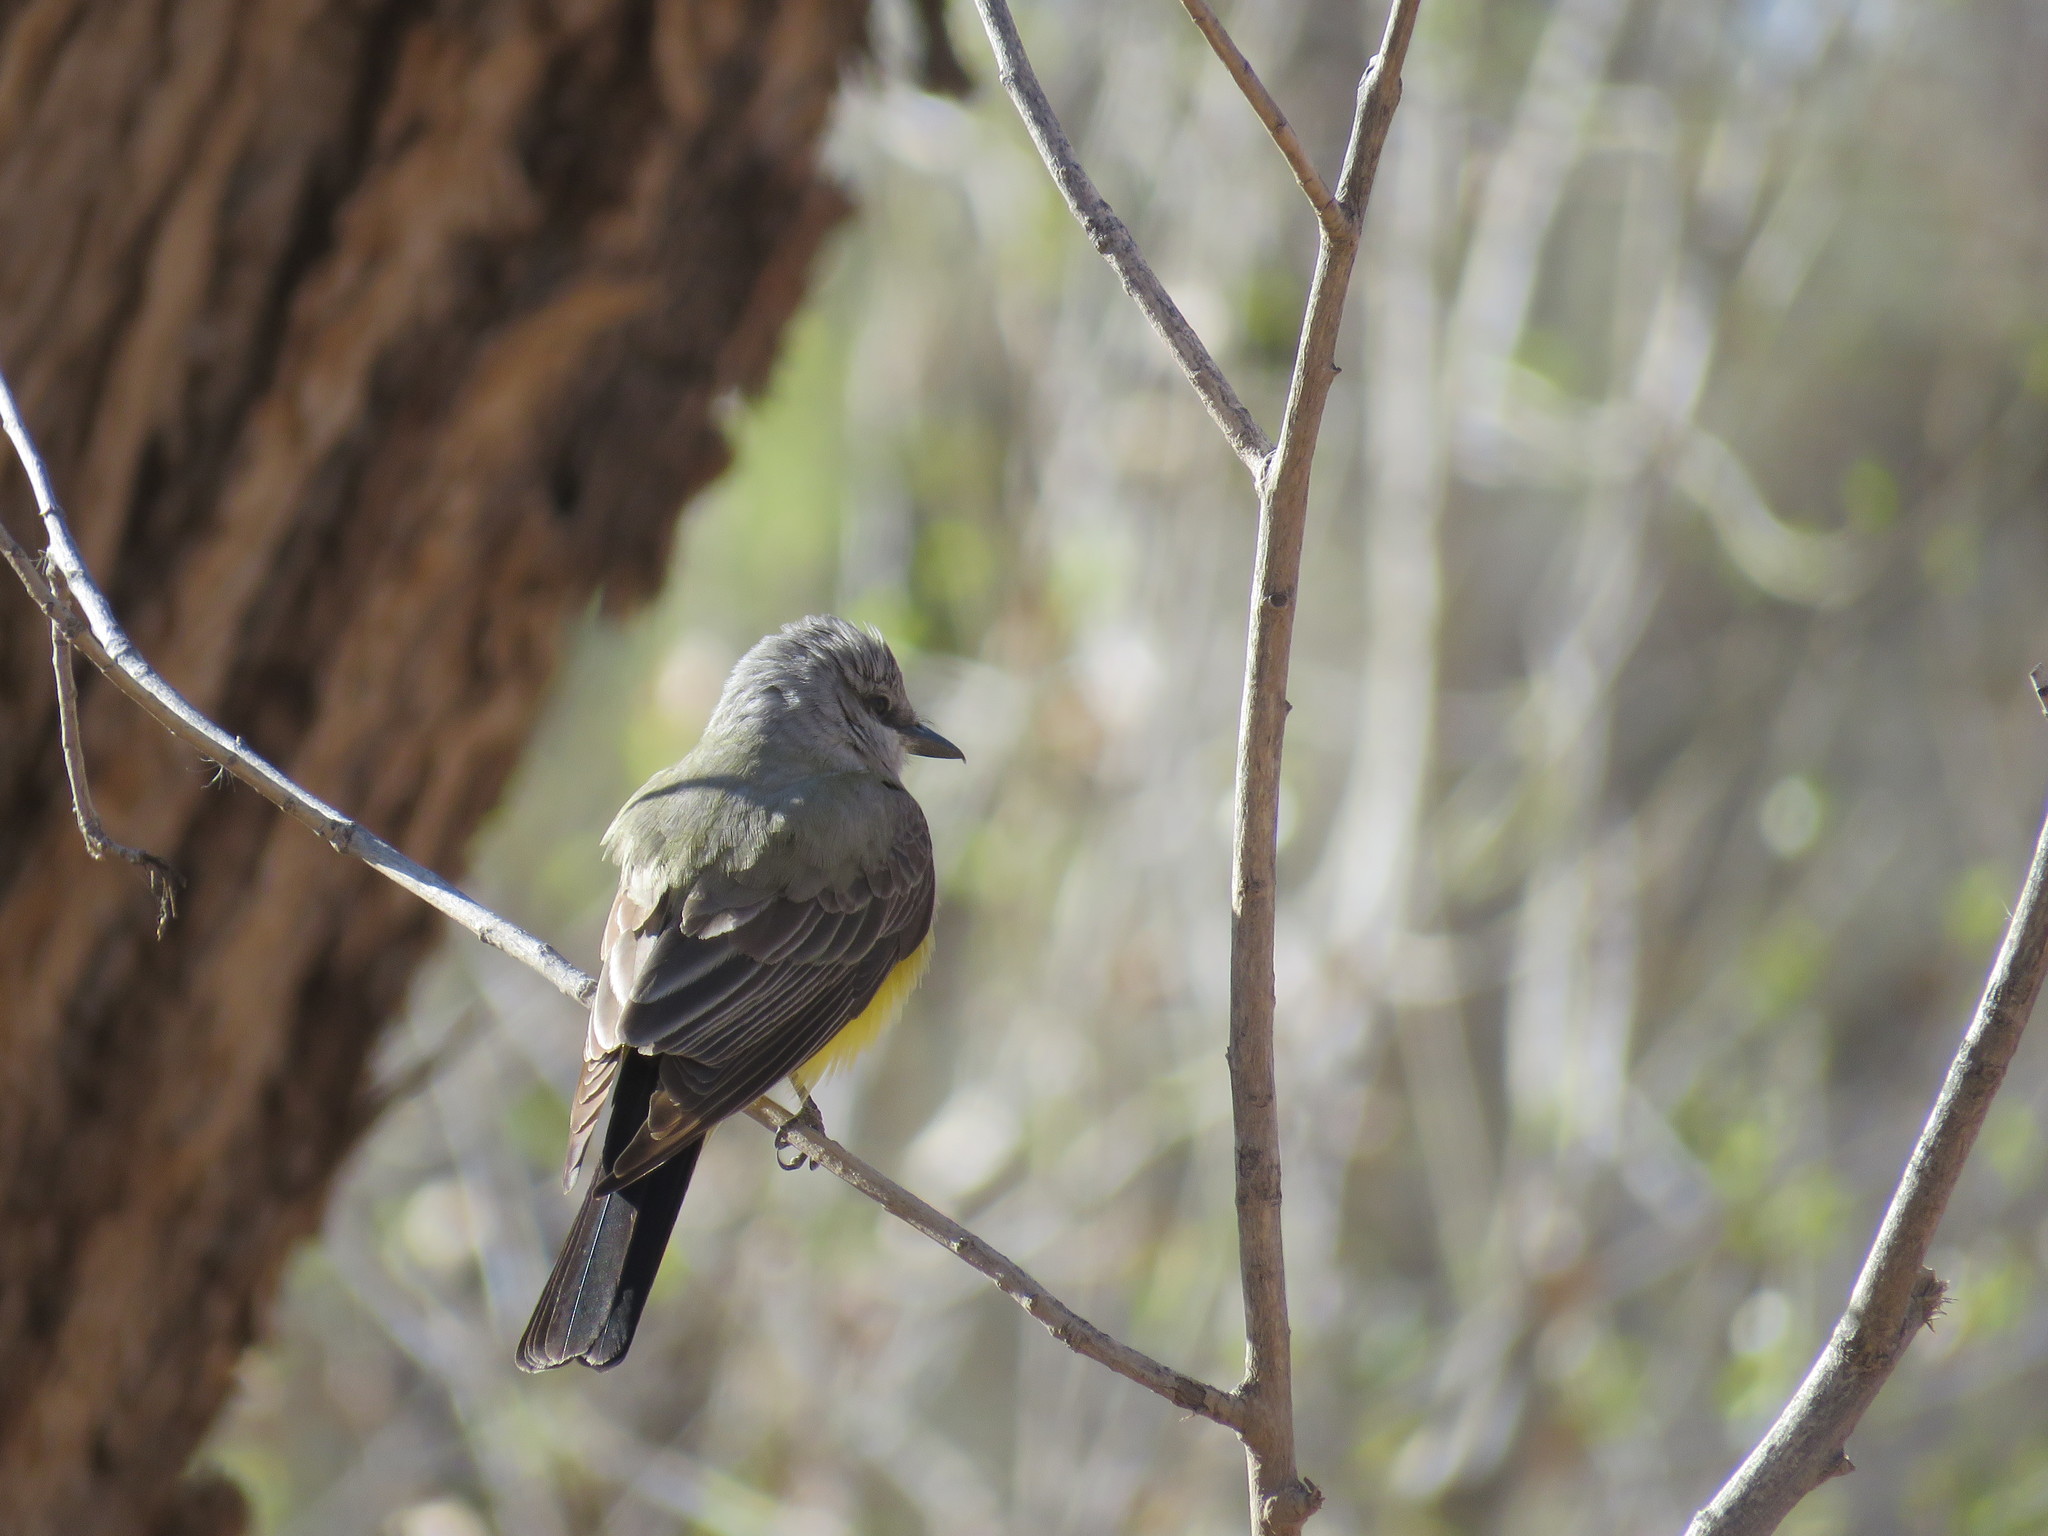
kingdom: Animalia
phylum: Chordata
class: Aves
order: Passeriformes
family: Tyrannidae
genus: Tyrannus
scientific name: Tyrannus verticalis
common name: Western kingbird
